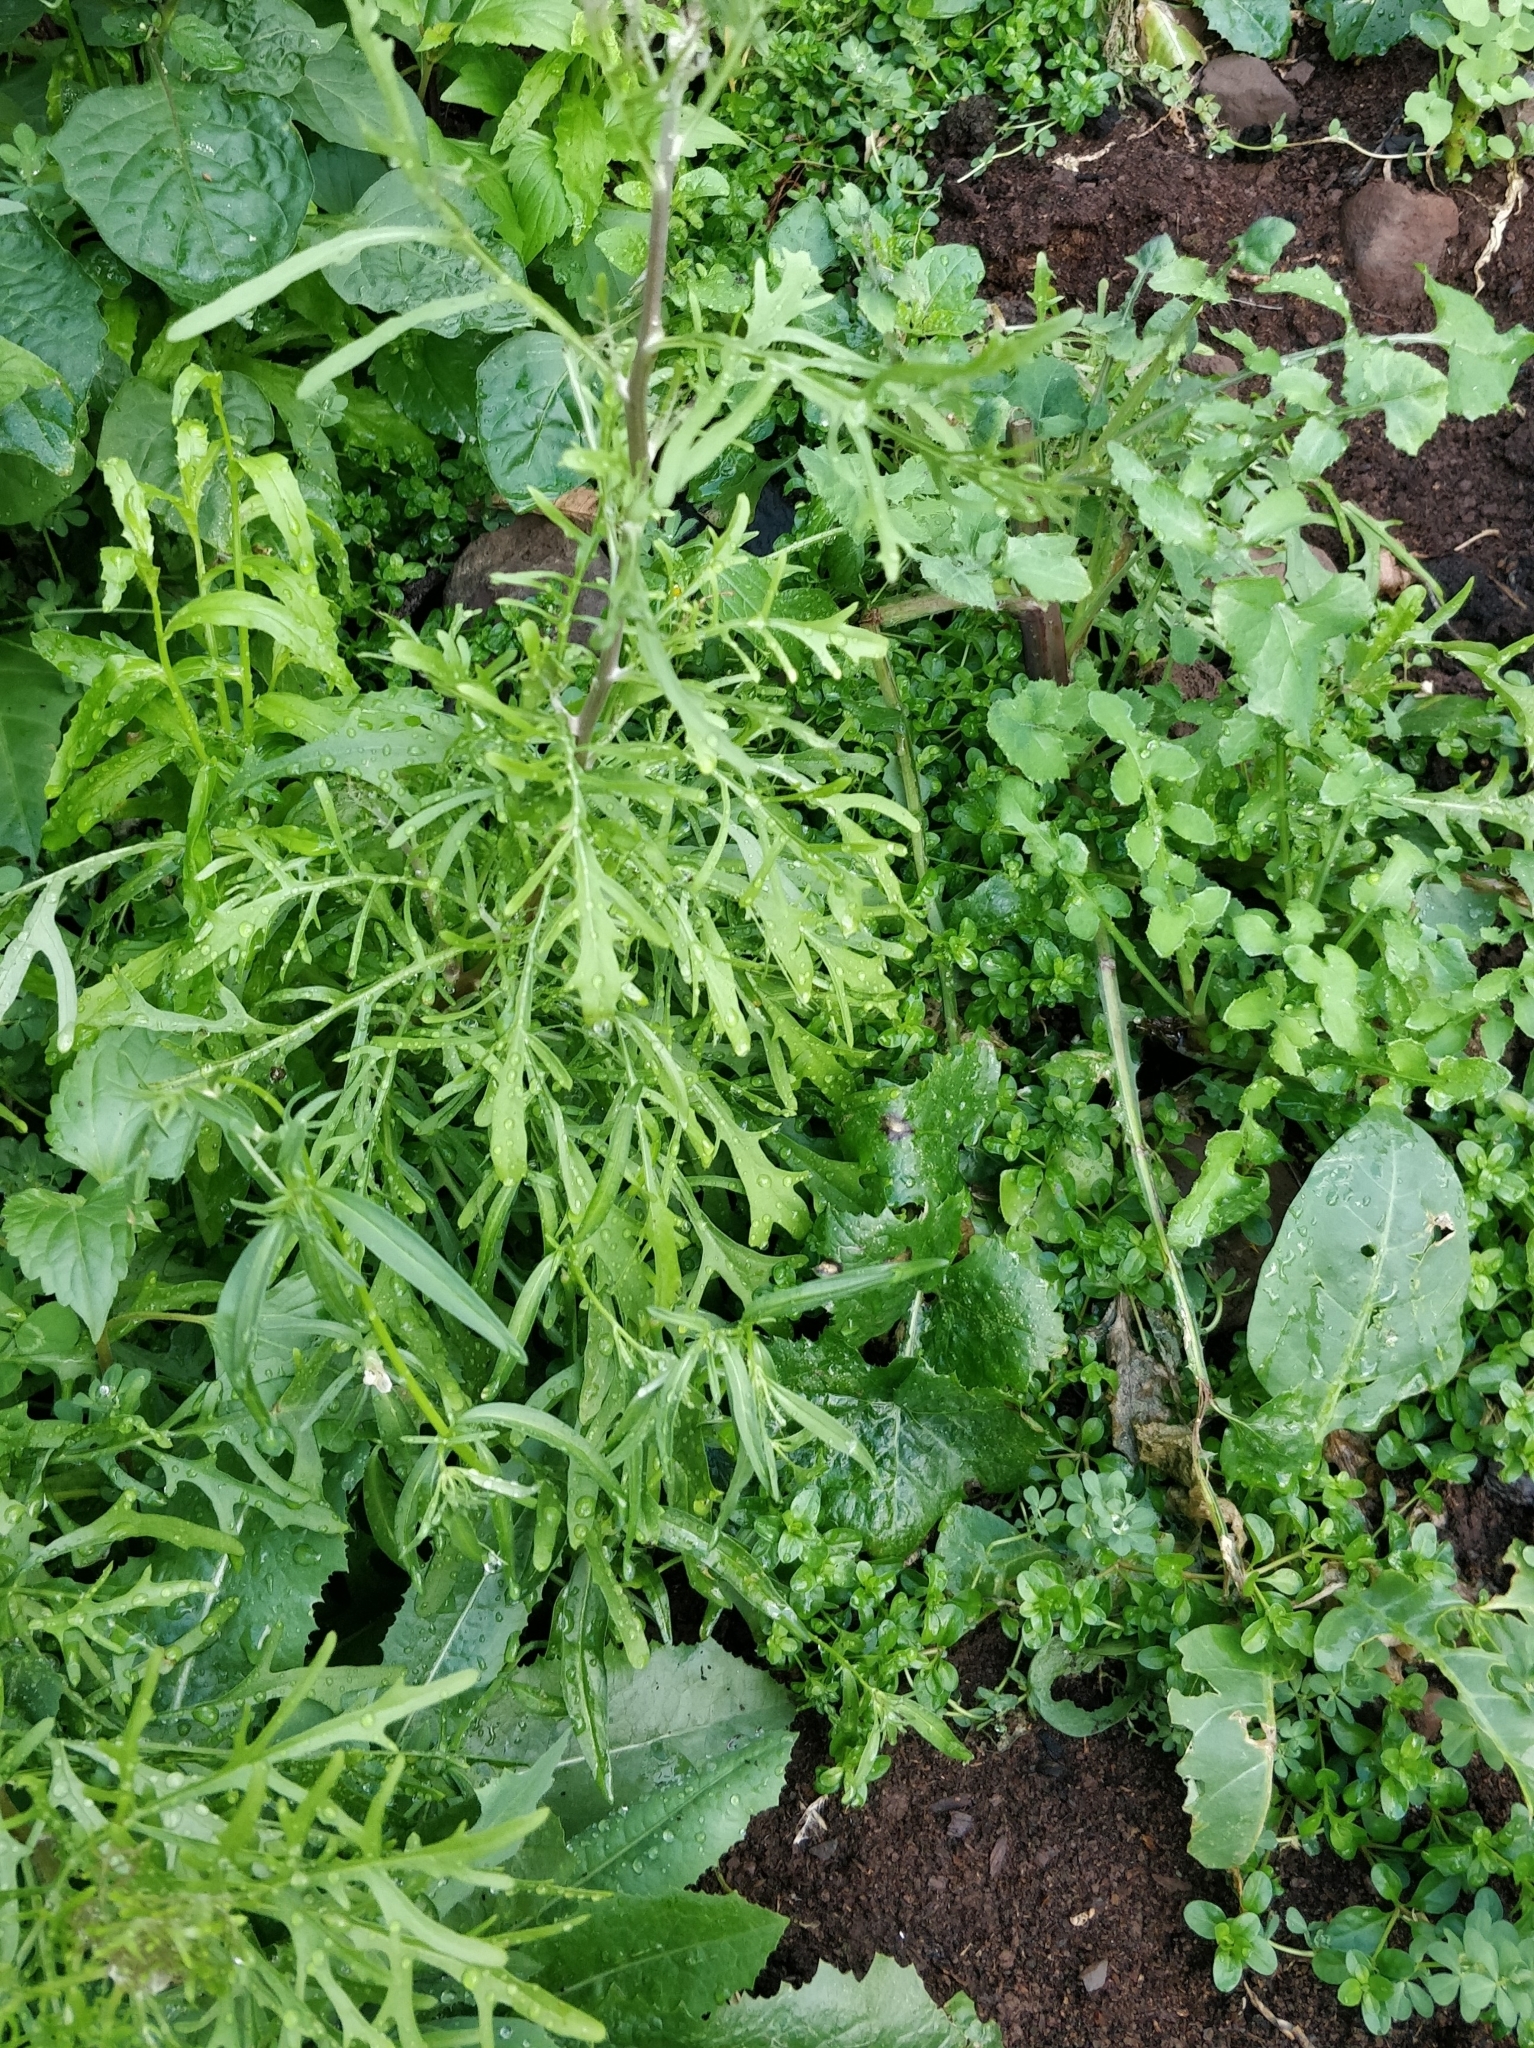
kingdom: Plantae
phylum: Tracheophyta
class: Magnoliopsida
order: Asterales
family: Asteraceae
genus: Tolpis
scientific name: Tolpis succulenta
